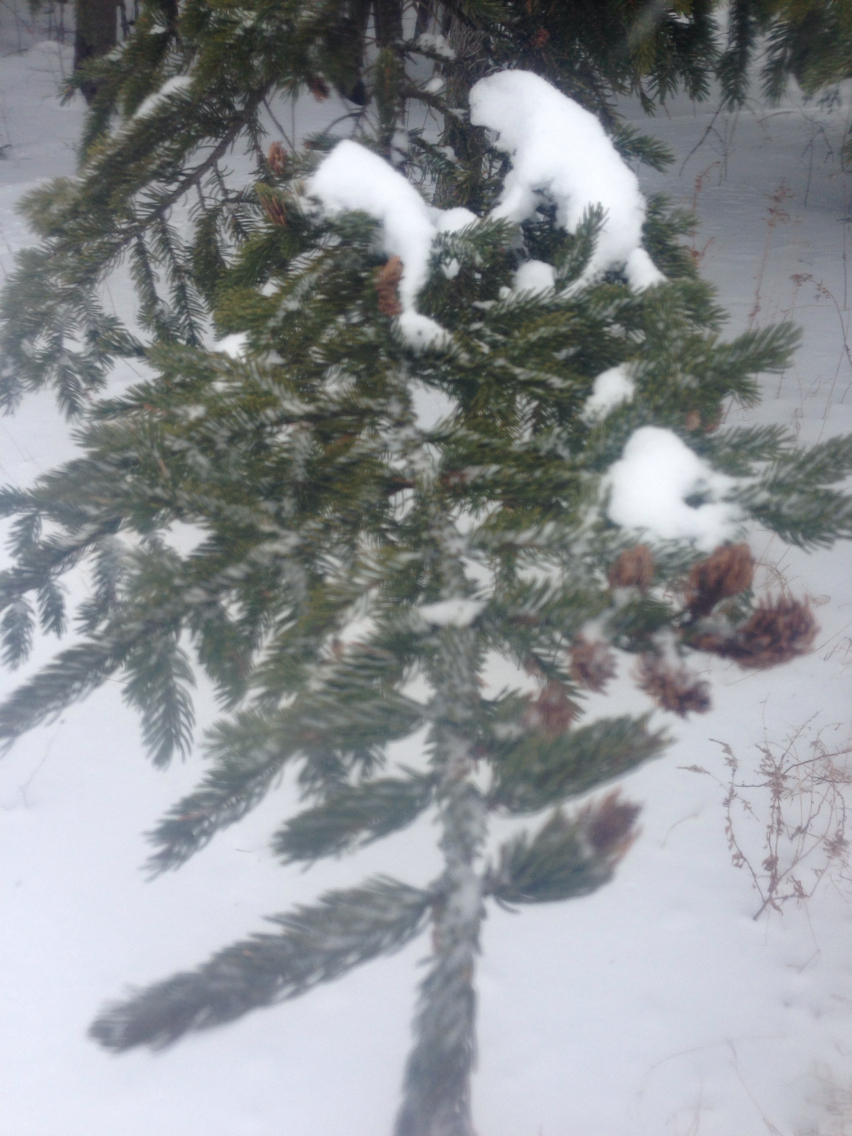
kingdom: Plantae
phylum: Tracheophyta
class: Pinopsida
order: Pinales
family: Pinaceae
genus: Picea
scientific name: Picea rubens
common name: Red spruce
